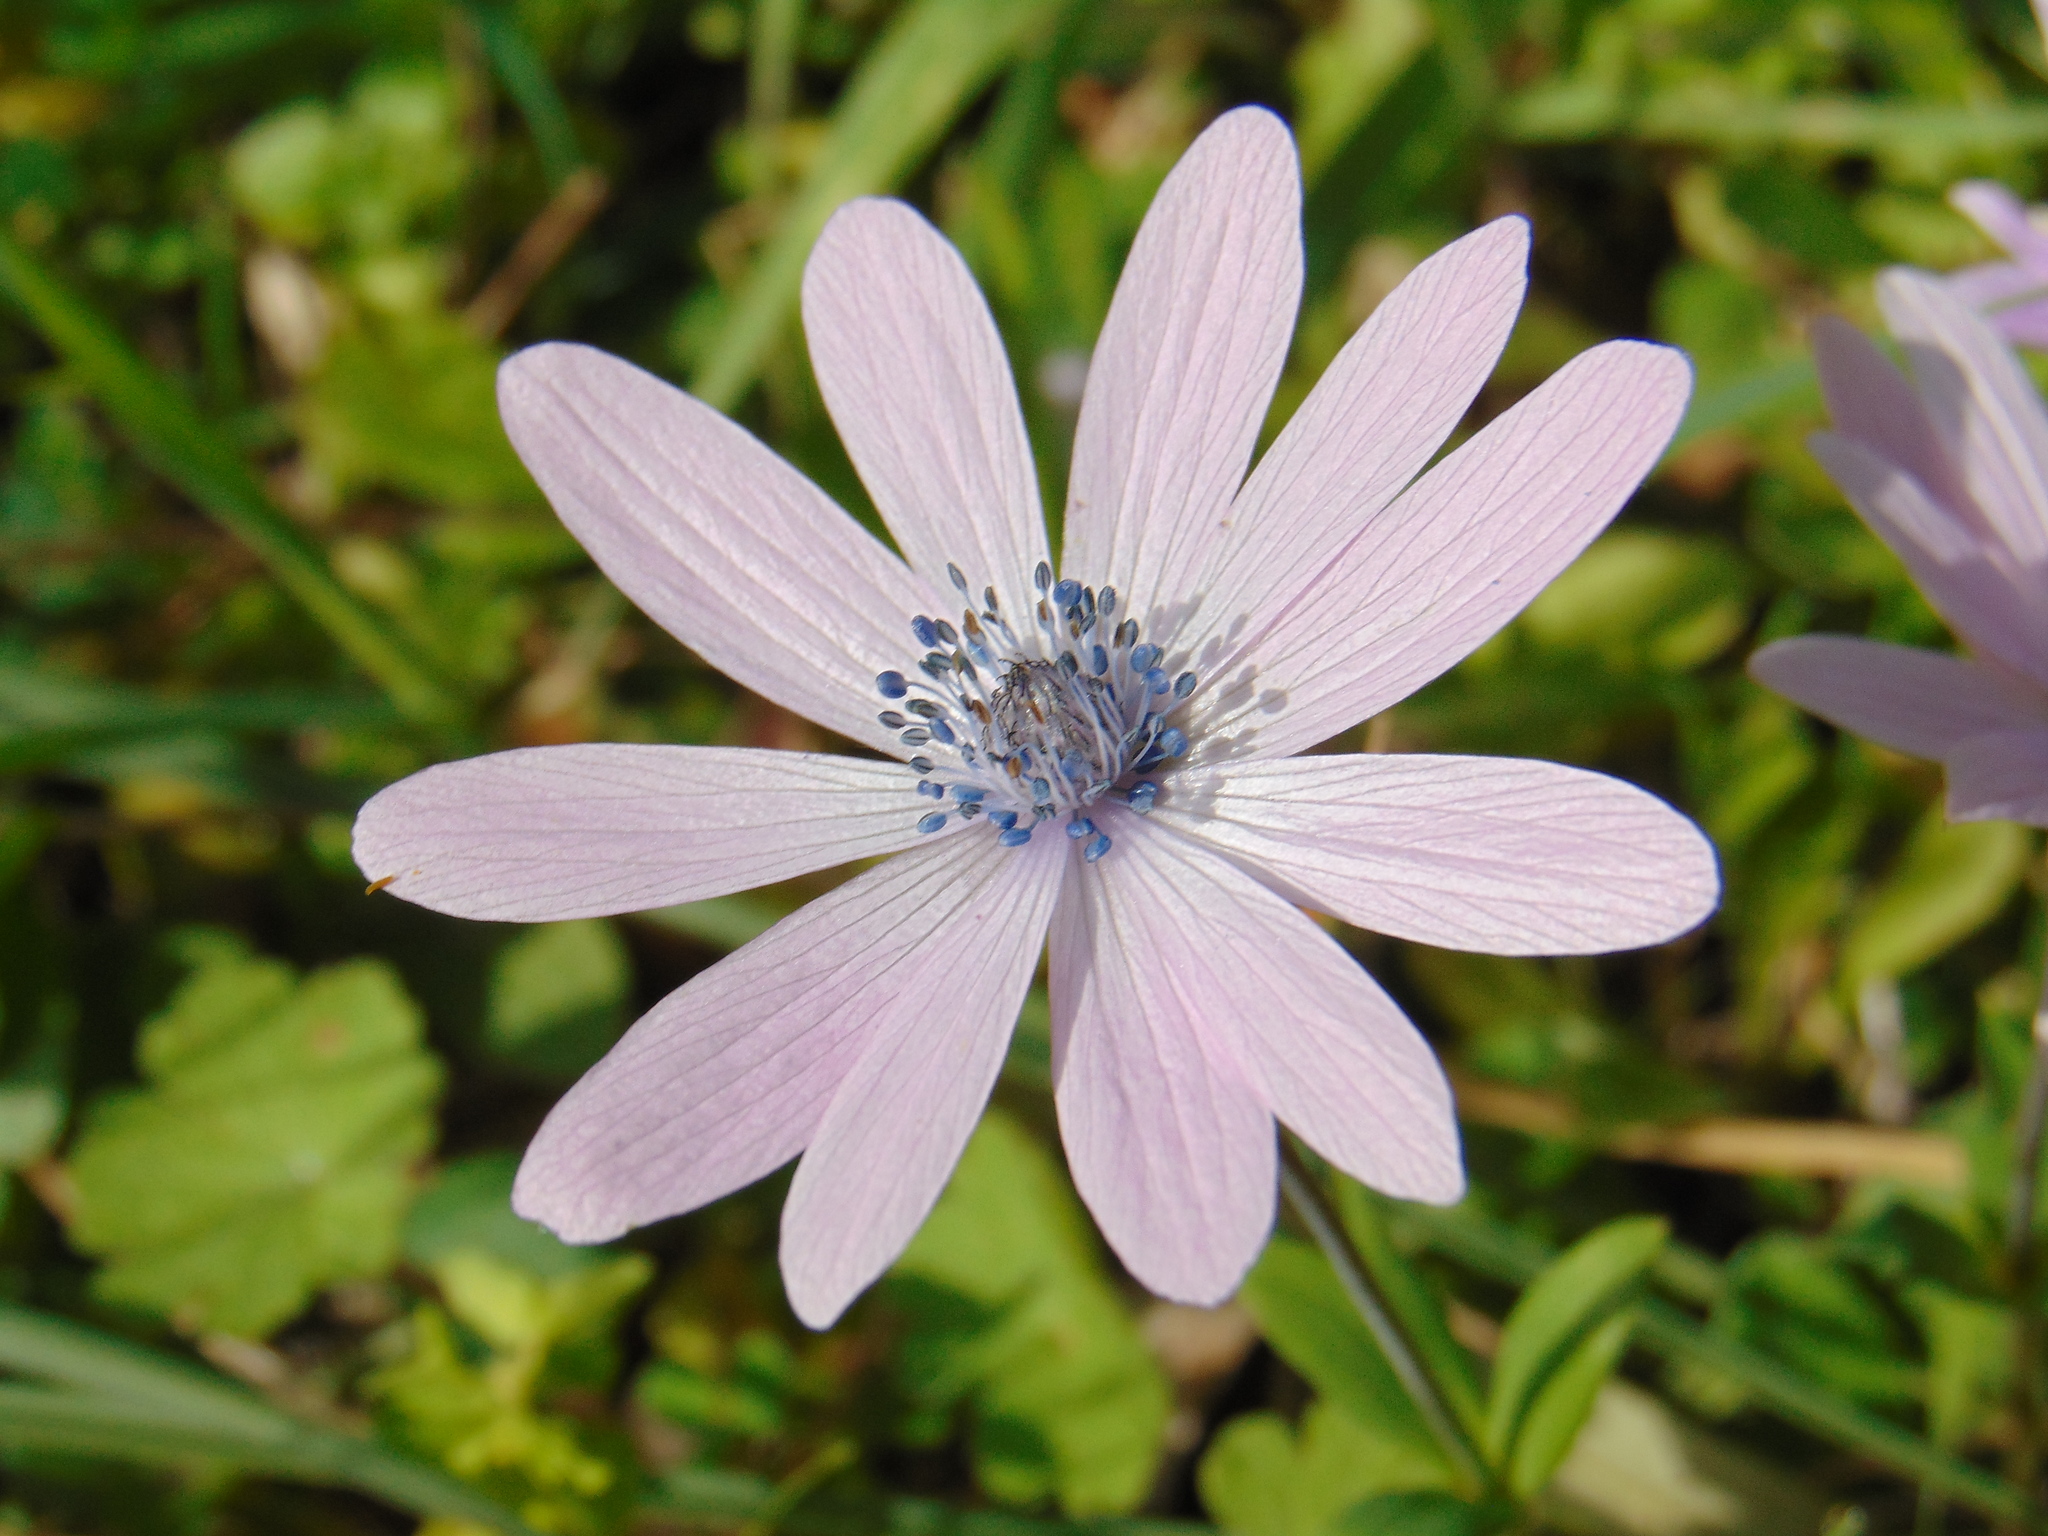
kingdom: Plantae
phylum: Tracheophyta
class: Magnoliopsida
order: Ranunculales
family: Ranunculaceae
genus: Anemone
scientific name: Anemone hortensis
